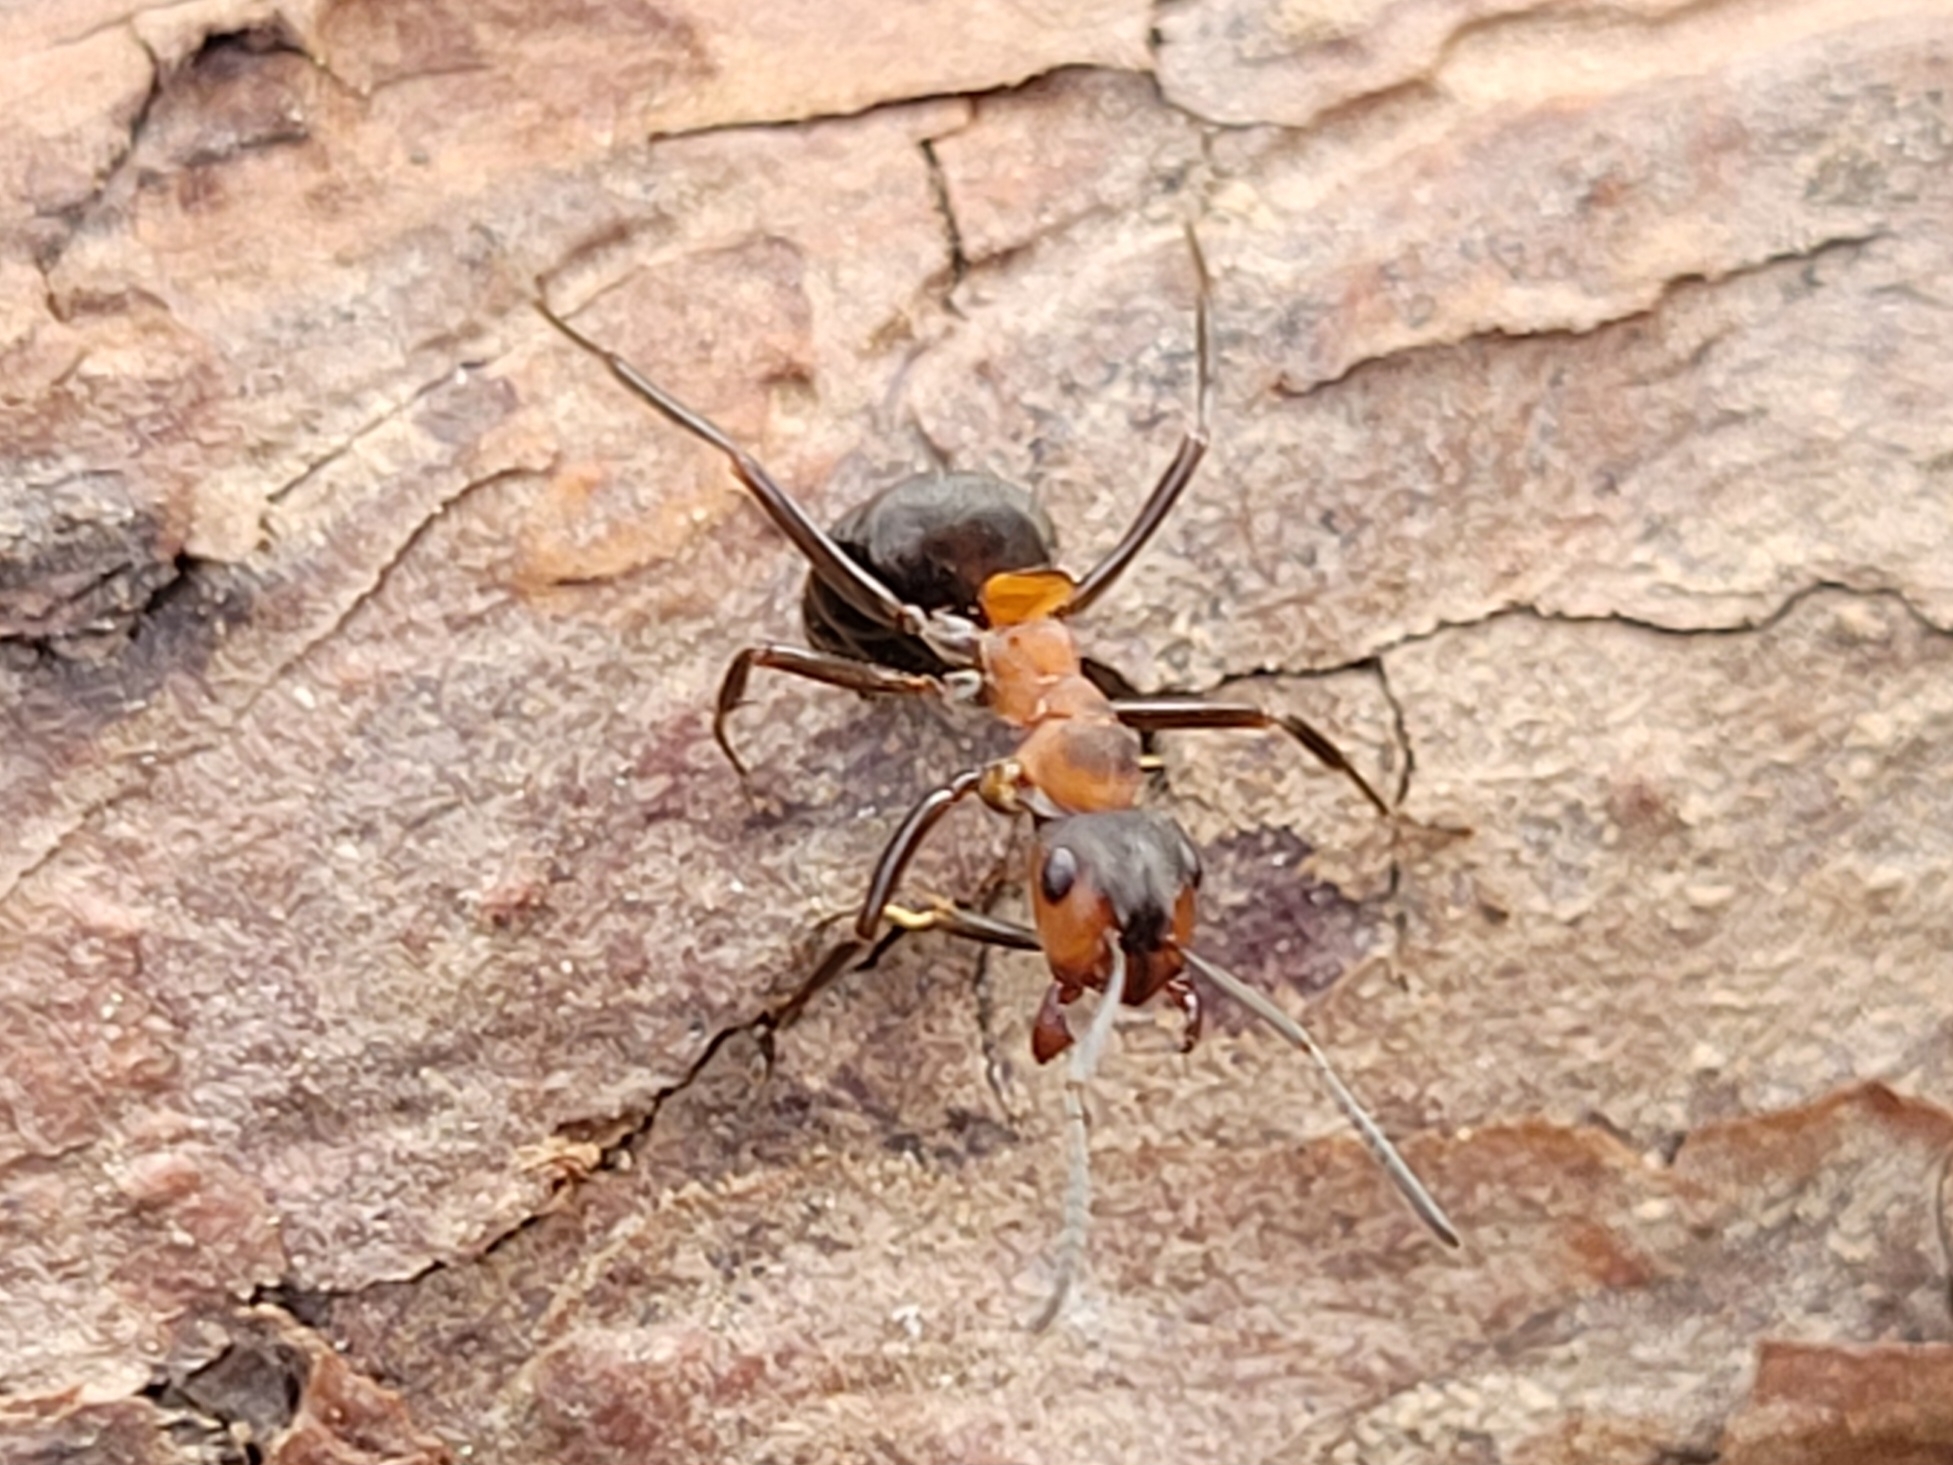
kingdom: Animalia
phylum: Arthropoda
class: Insecta
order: Hymenoptera
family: Formicidae
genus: Formica
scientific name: Formica
